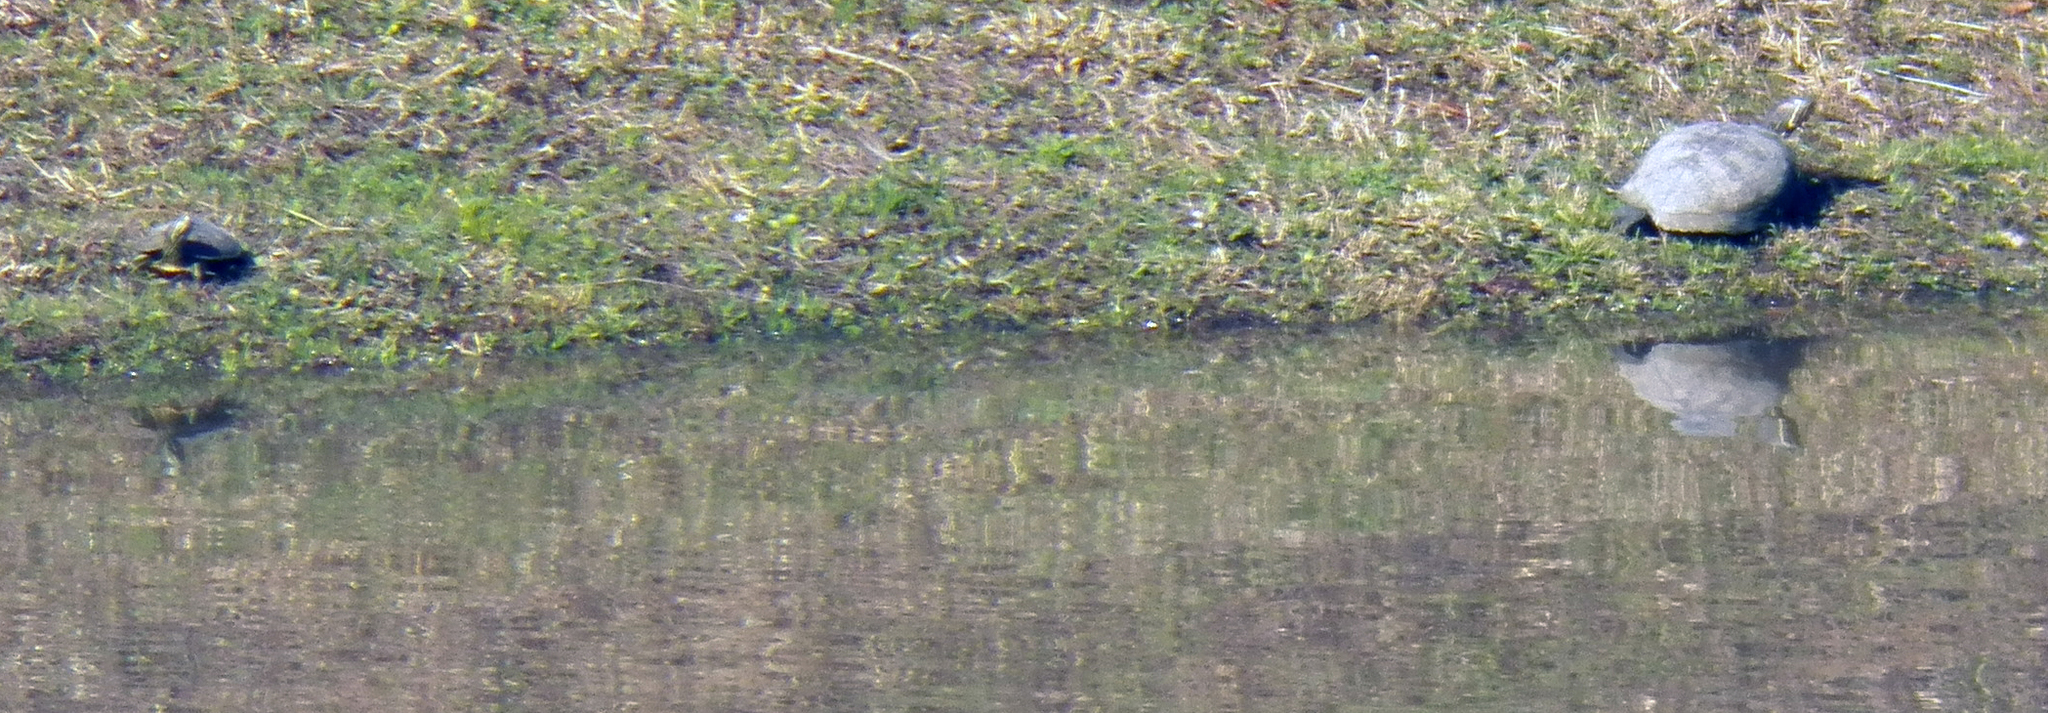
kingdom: Animalia
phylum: Chordata
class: Testudines
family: Emydidae
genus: Trachemys
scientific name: Trachemys scripta
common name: Slider
